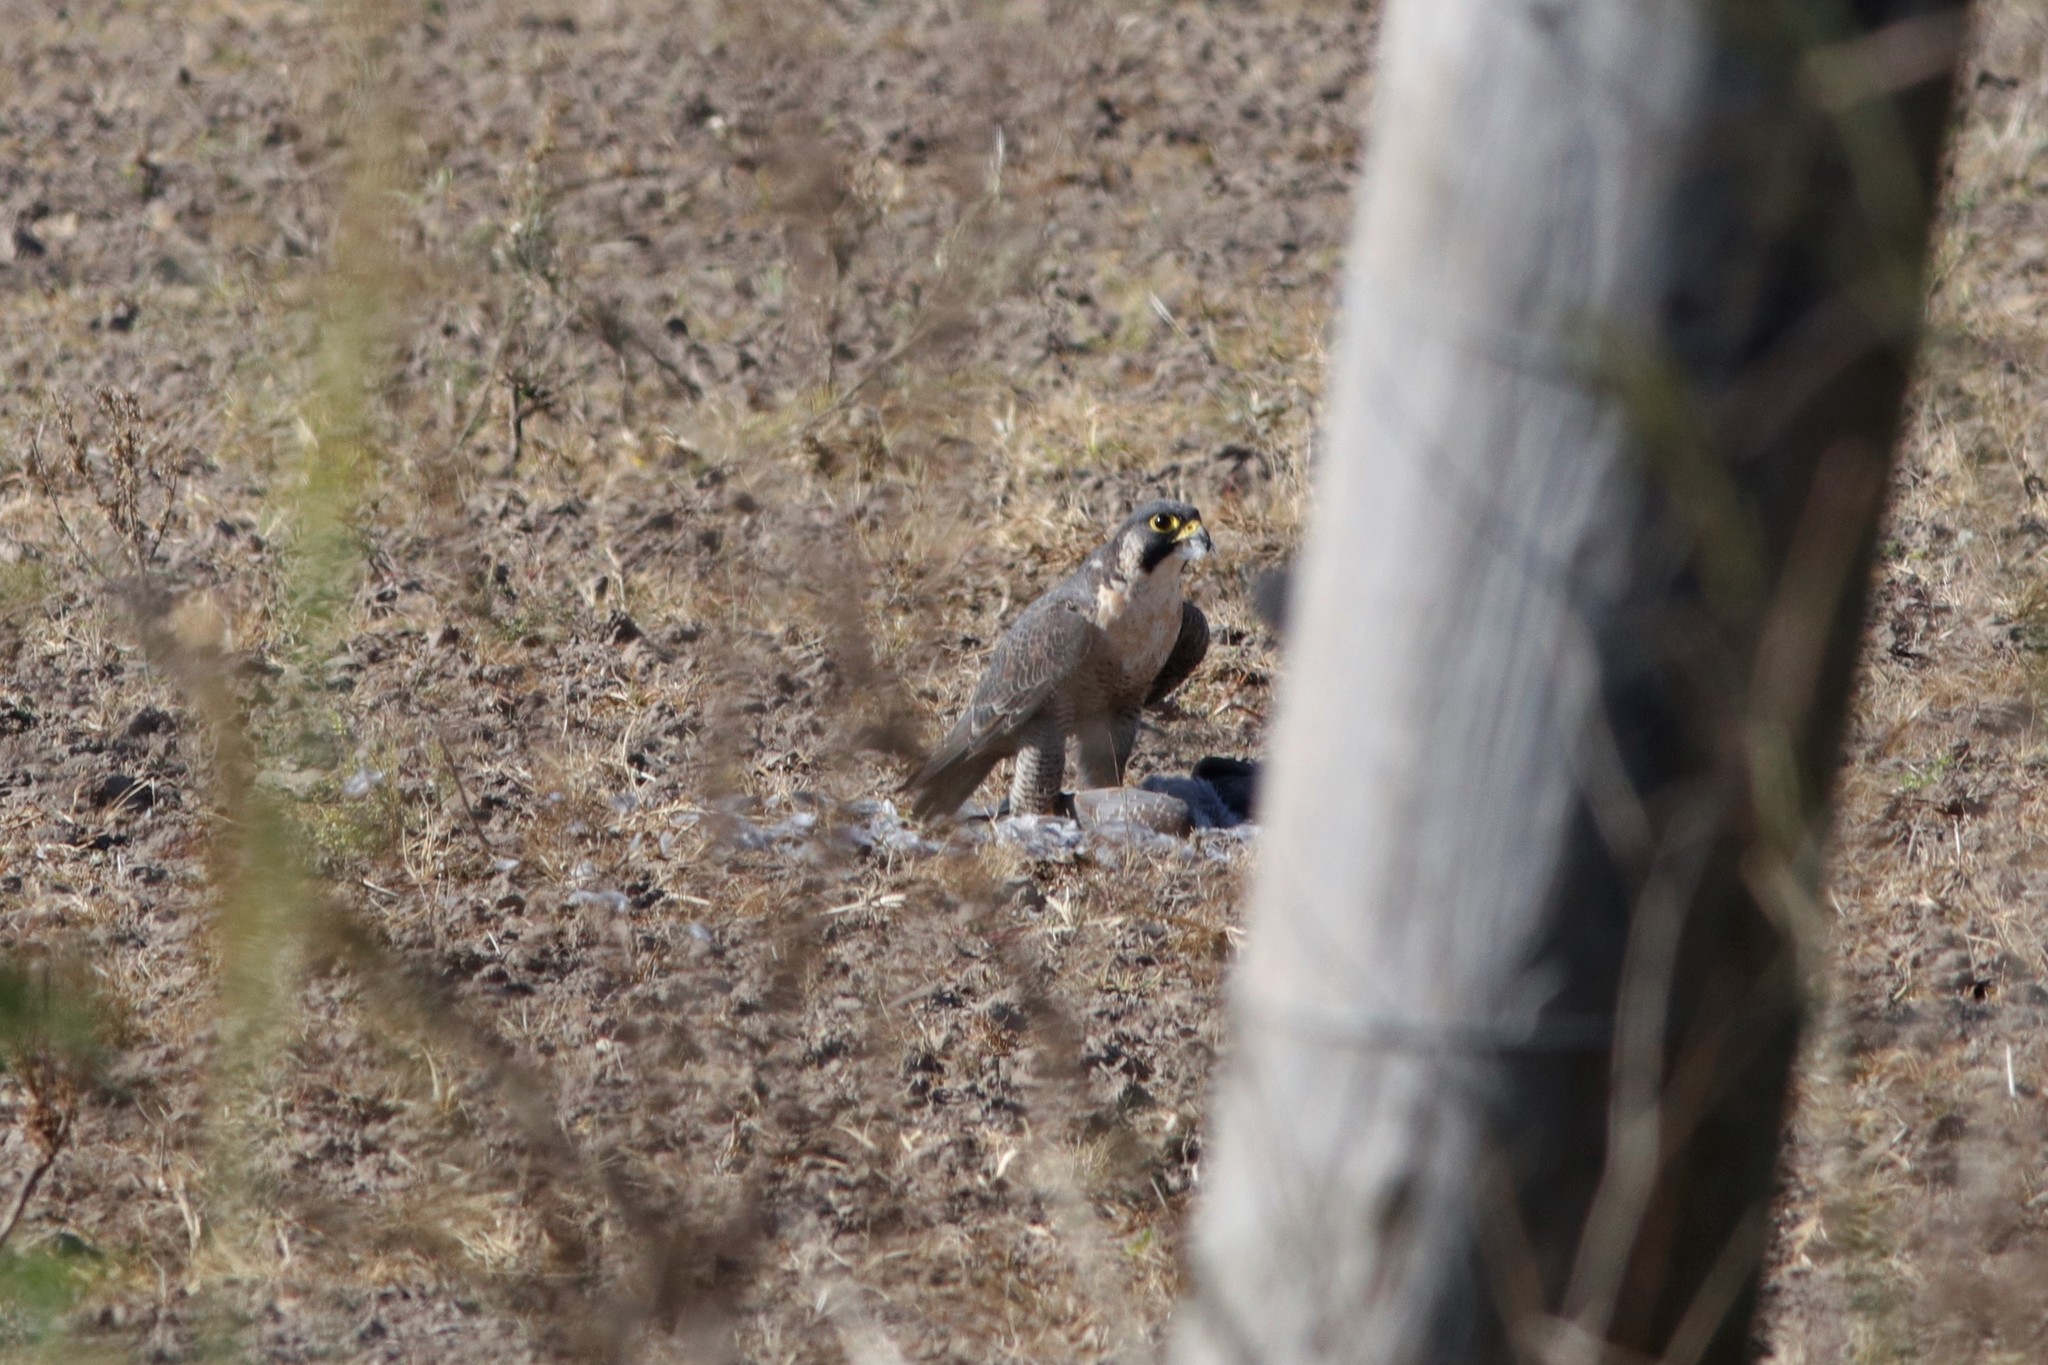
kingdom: Animalia
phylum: Chordata
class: Aves
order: Falconiformes
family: Falconidae
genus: Falco
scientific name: Falco peregrinus
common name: Peregrine falcon
